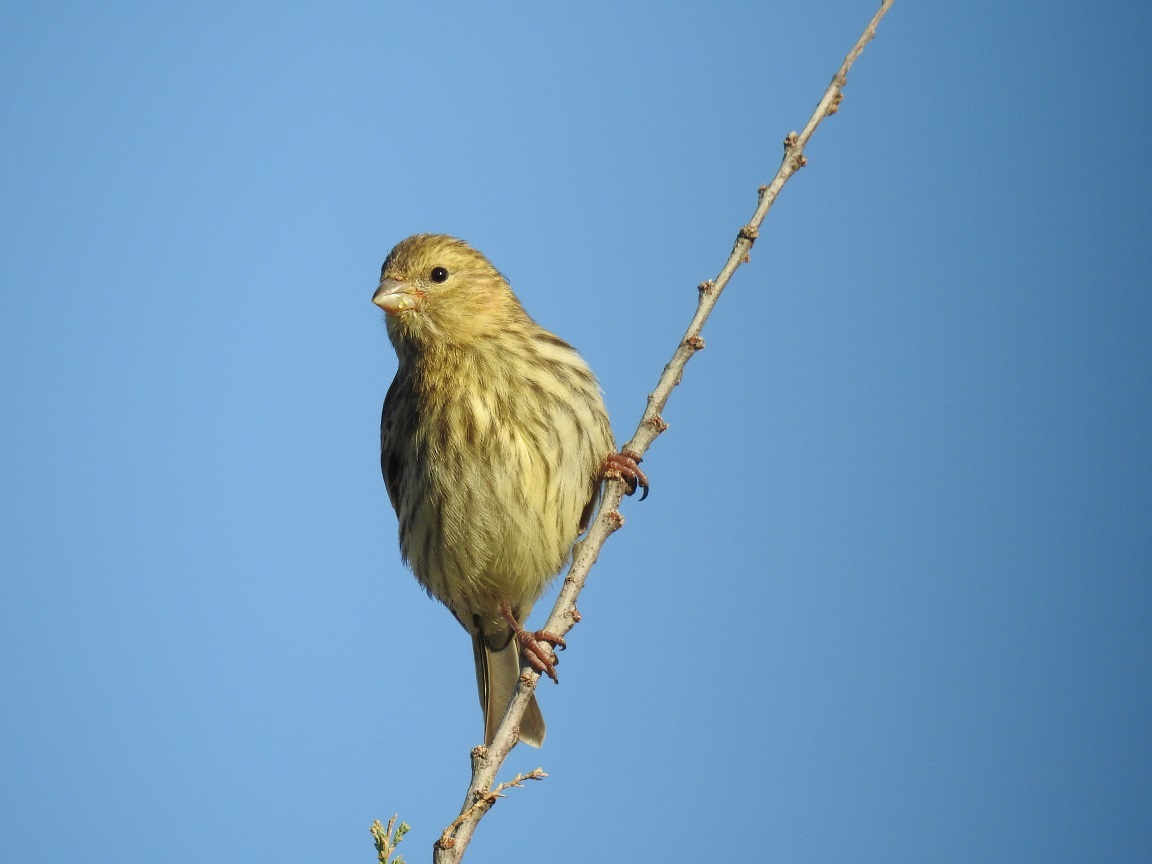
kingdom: Animalia
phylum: Chordata
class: Aves
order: Passeriformes
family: Fringillidae
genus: Serinus
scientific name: Serinus serinus
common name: European serin
